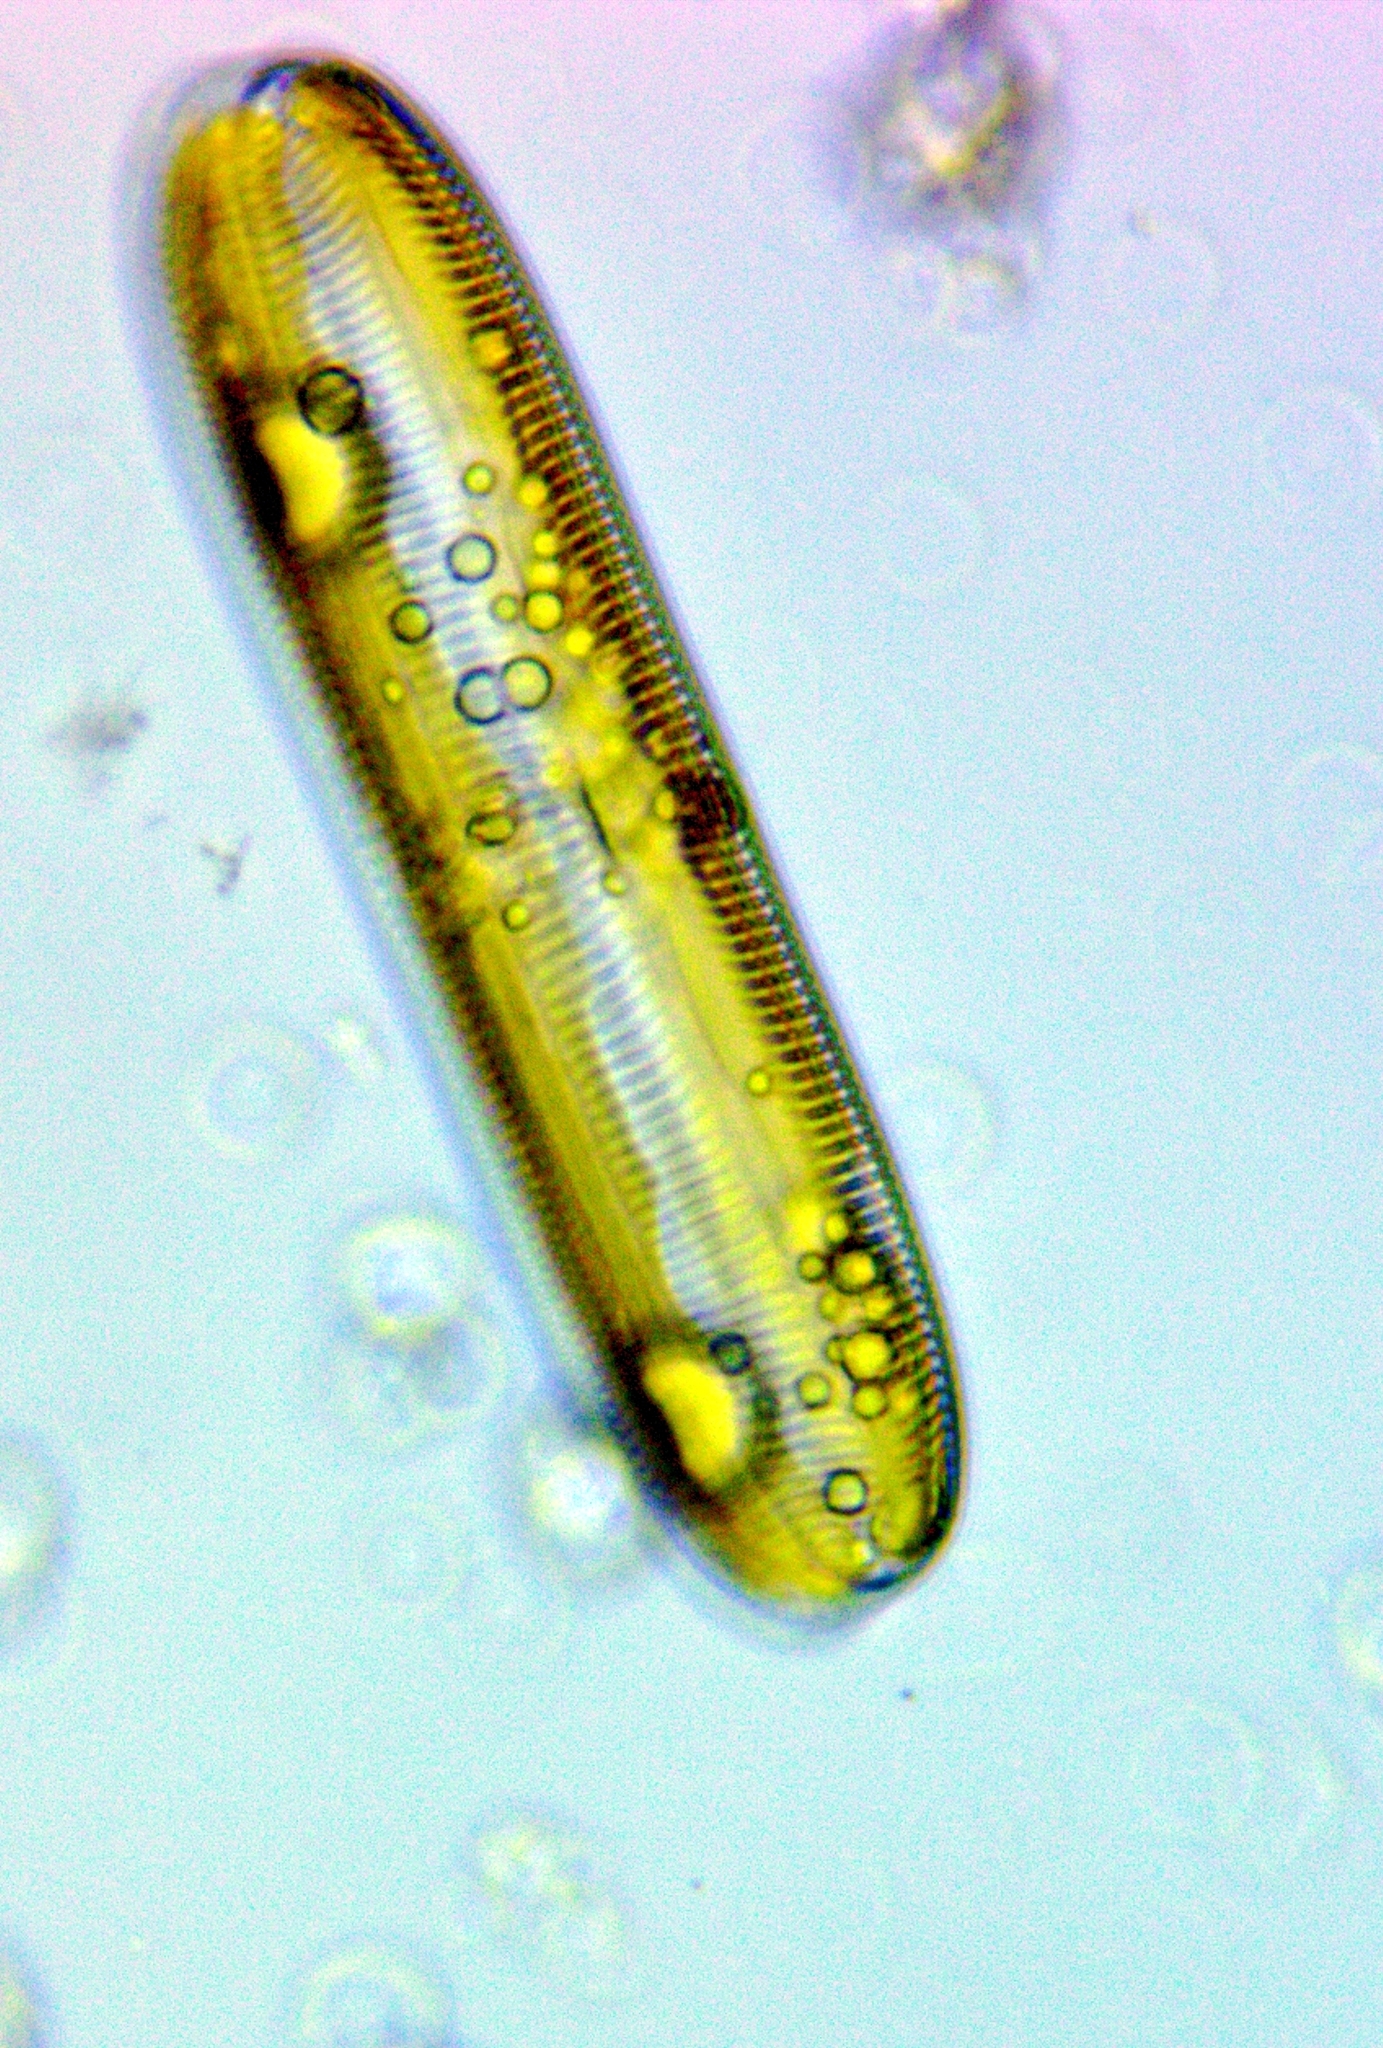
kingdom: Chromista
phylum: Ochrophyta
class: Bacillariophyceae
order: Naviculales
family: Pinnulariaceae
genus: Pinnularia
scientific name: Pinnularia
